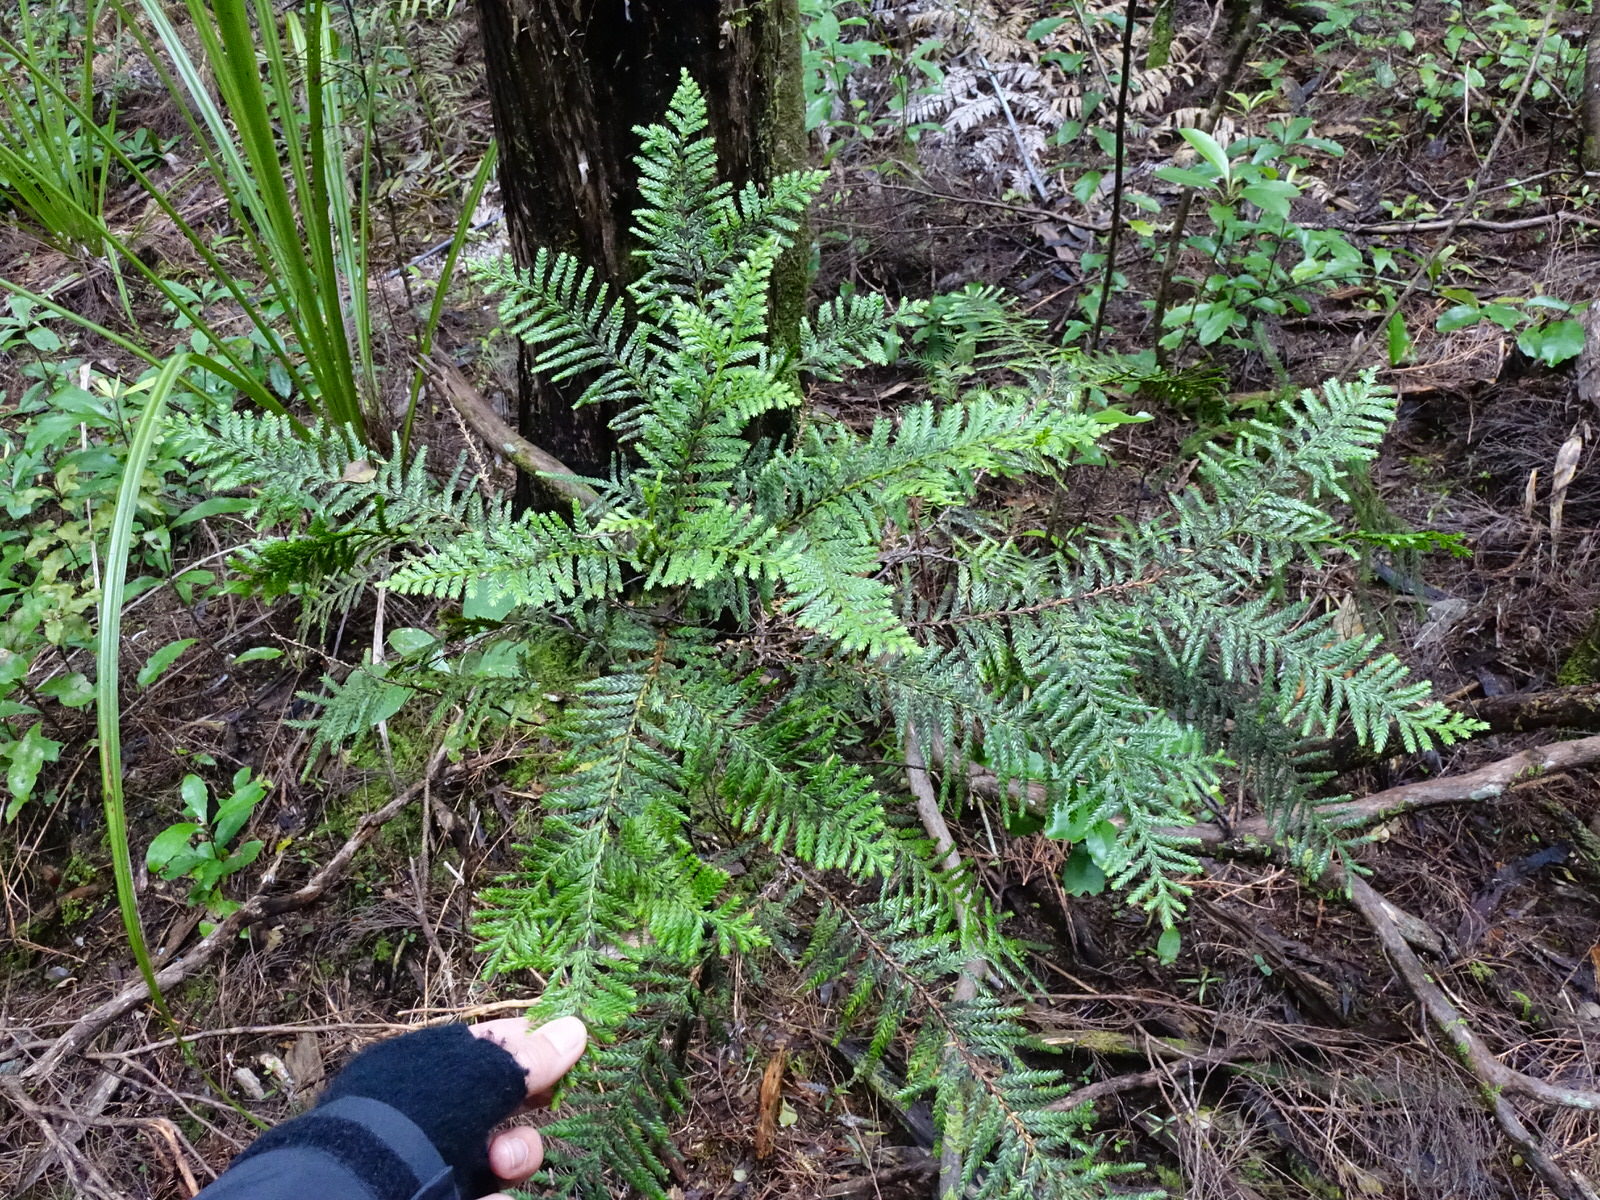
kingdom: Plantae
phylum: Tracheophyta
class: Pinopsida
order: Pinales
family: Cupressaceae
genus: Libocedrus
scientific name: Libocedrus plumosa
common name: New zealand cedar
